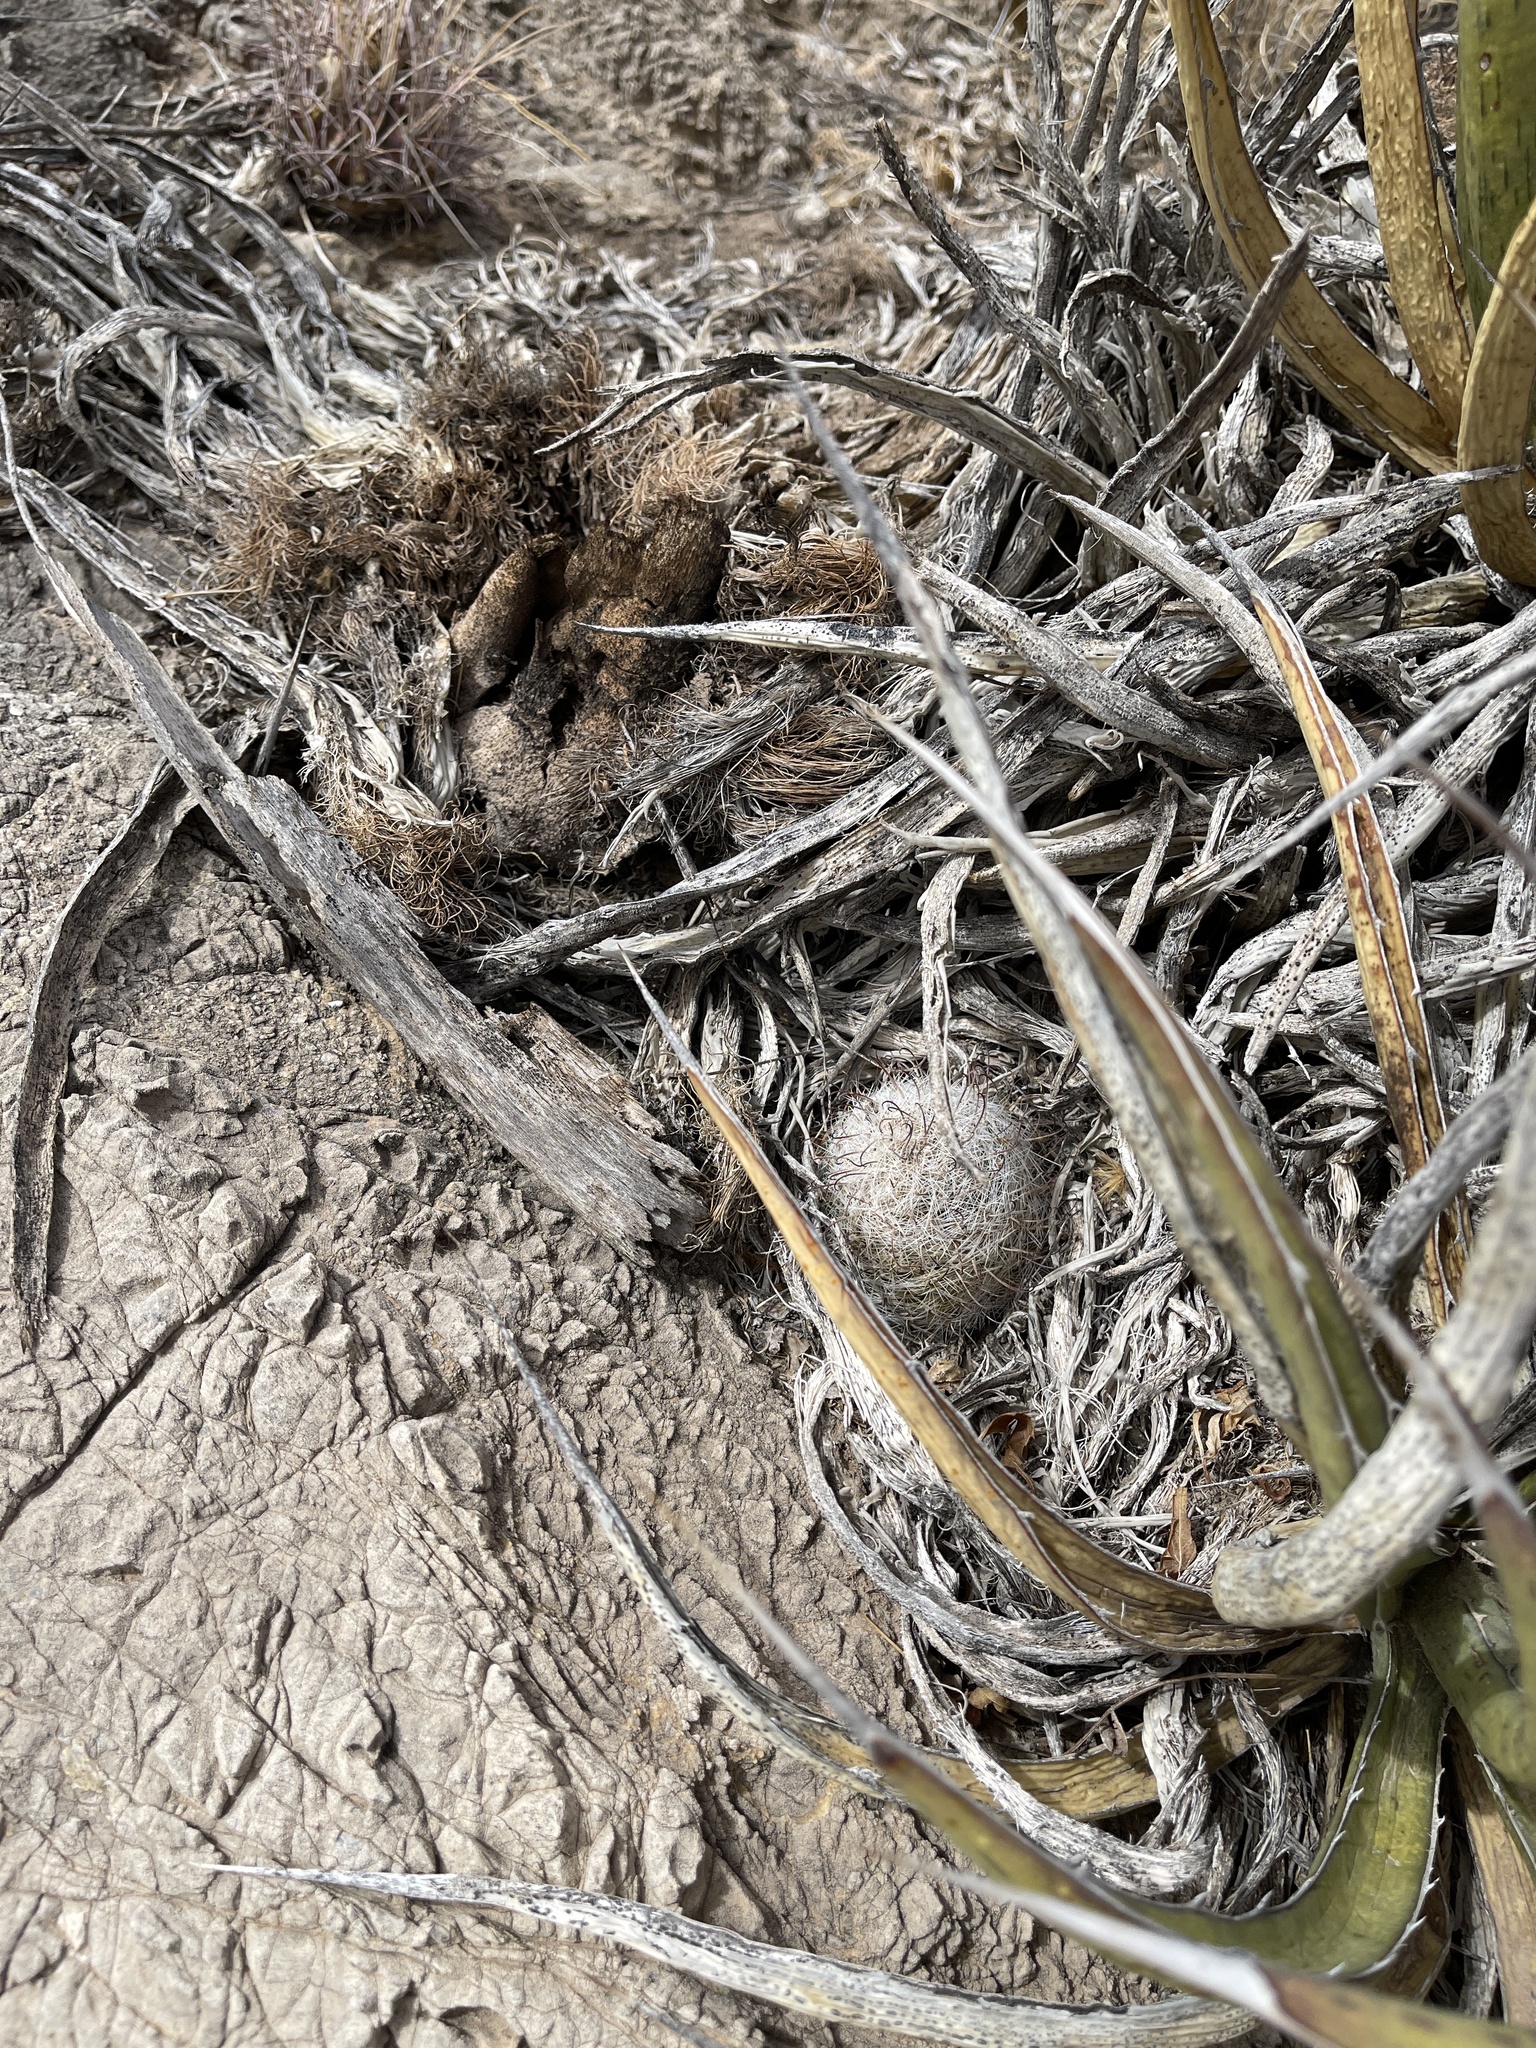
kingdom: Plantae
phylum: Tracheophyta
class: Magnoliopsida
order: Caryophyllales
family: Cactaceae
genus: Cochemiea
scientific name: Cochemiea grahamii
